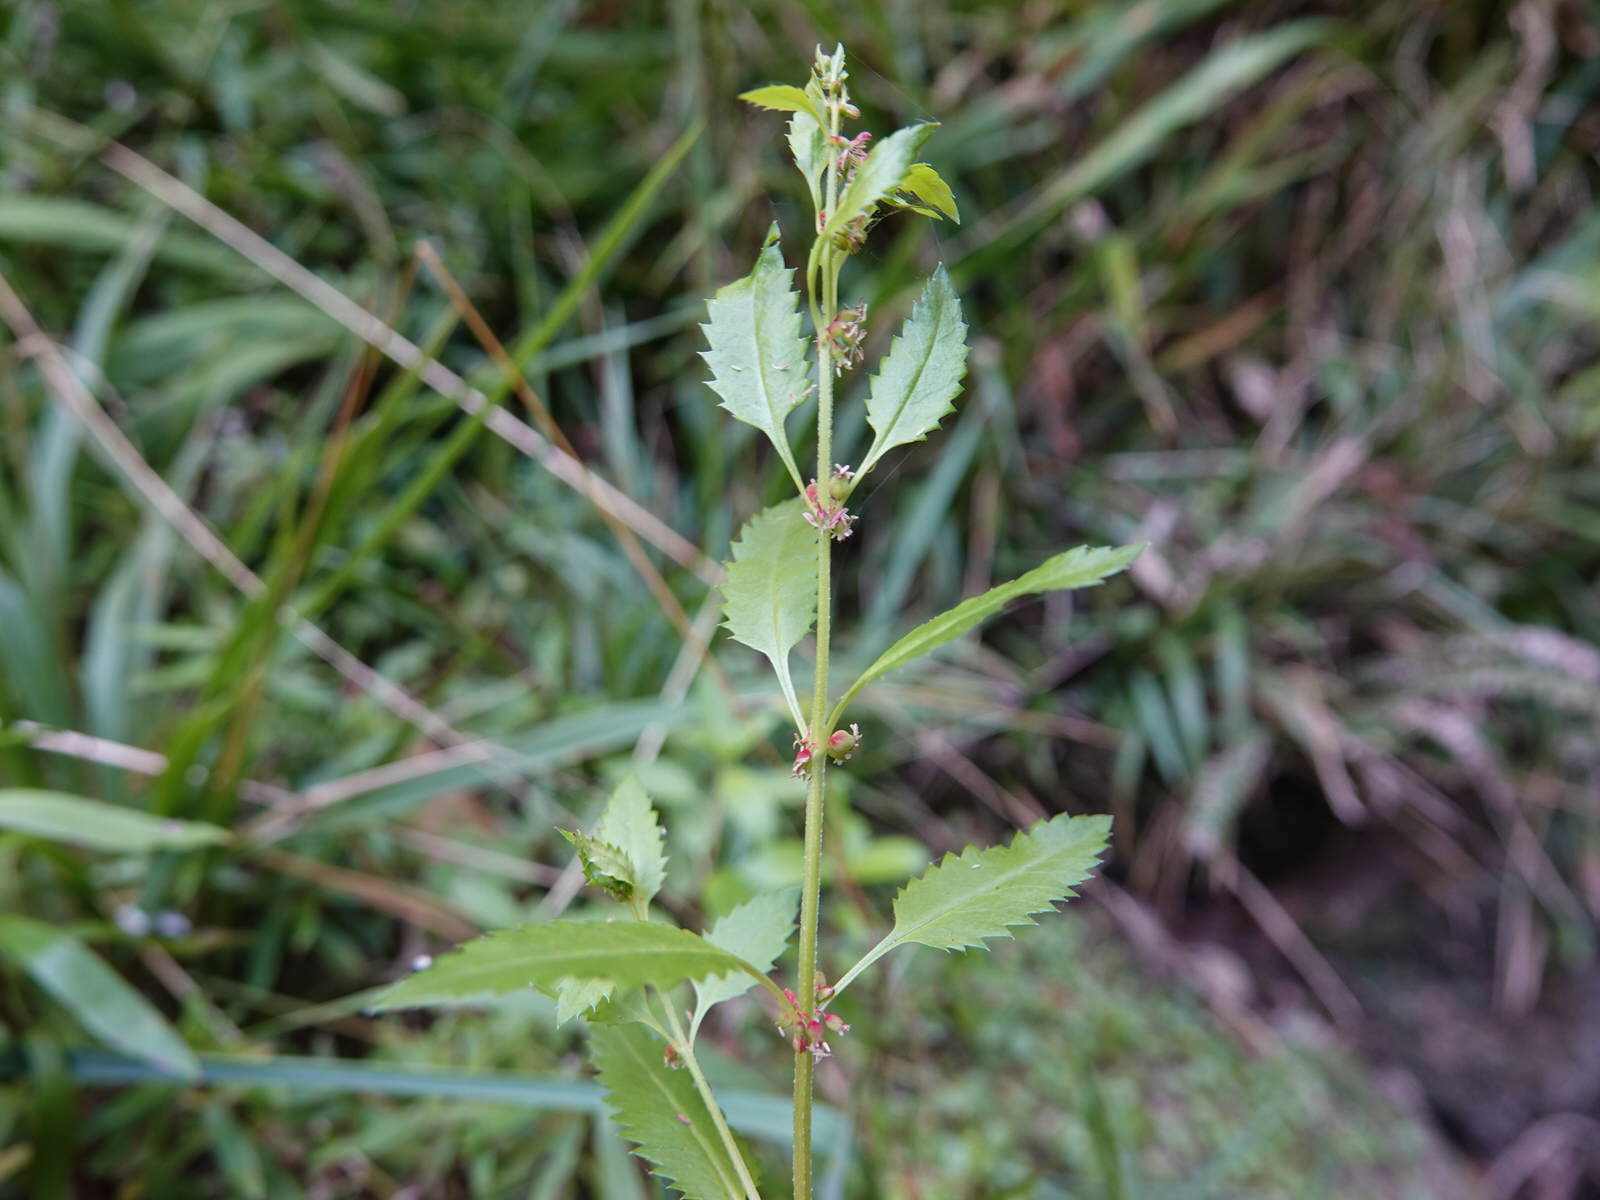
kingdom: Plantae
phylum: Tracheophyta
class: Magnoliopsida
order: Saxifragales
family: Haloragaceae
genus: Haloragis
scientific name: Haloragis erecta
